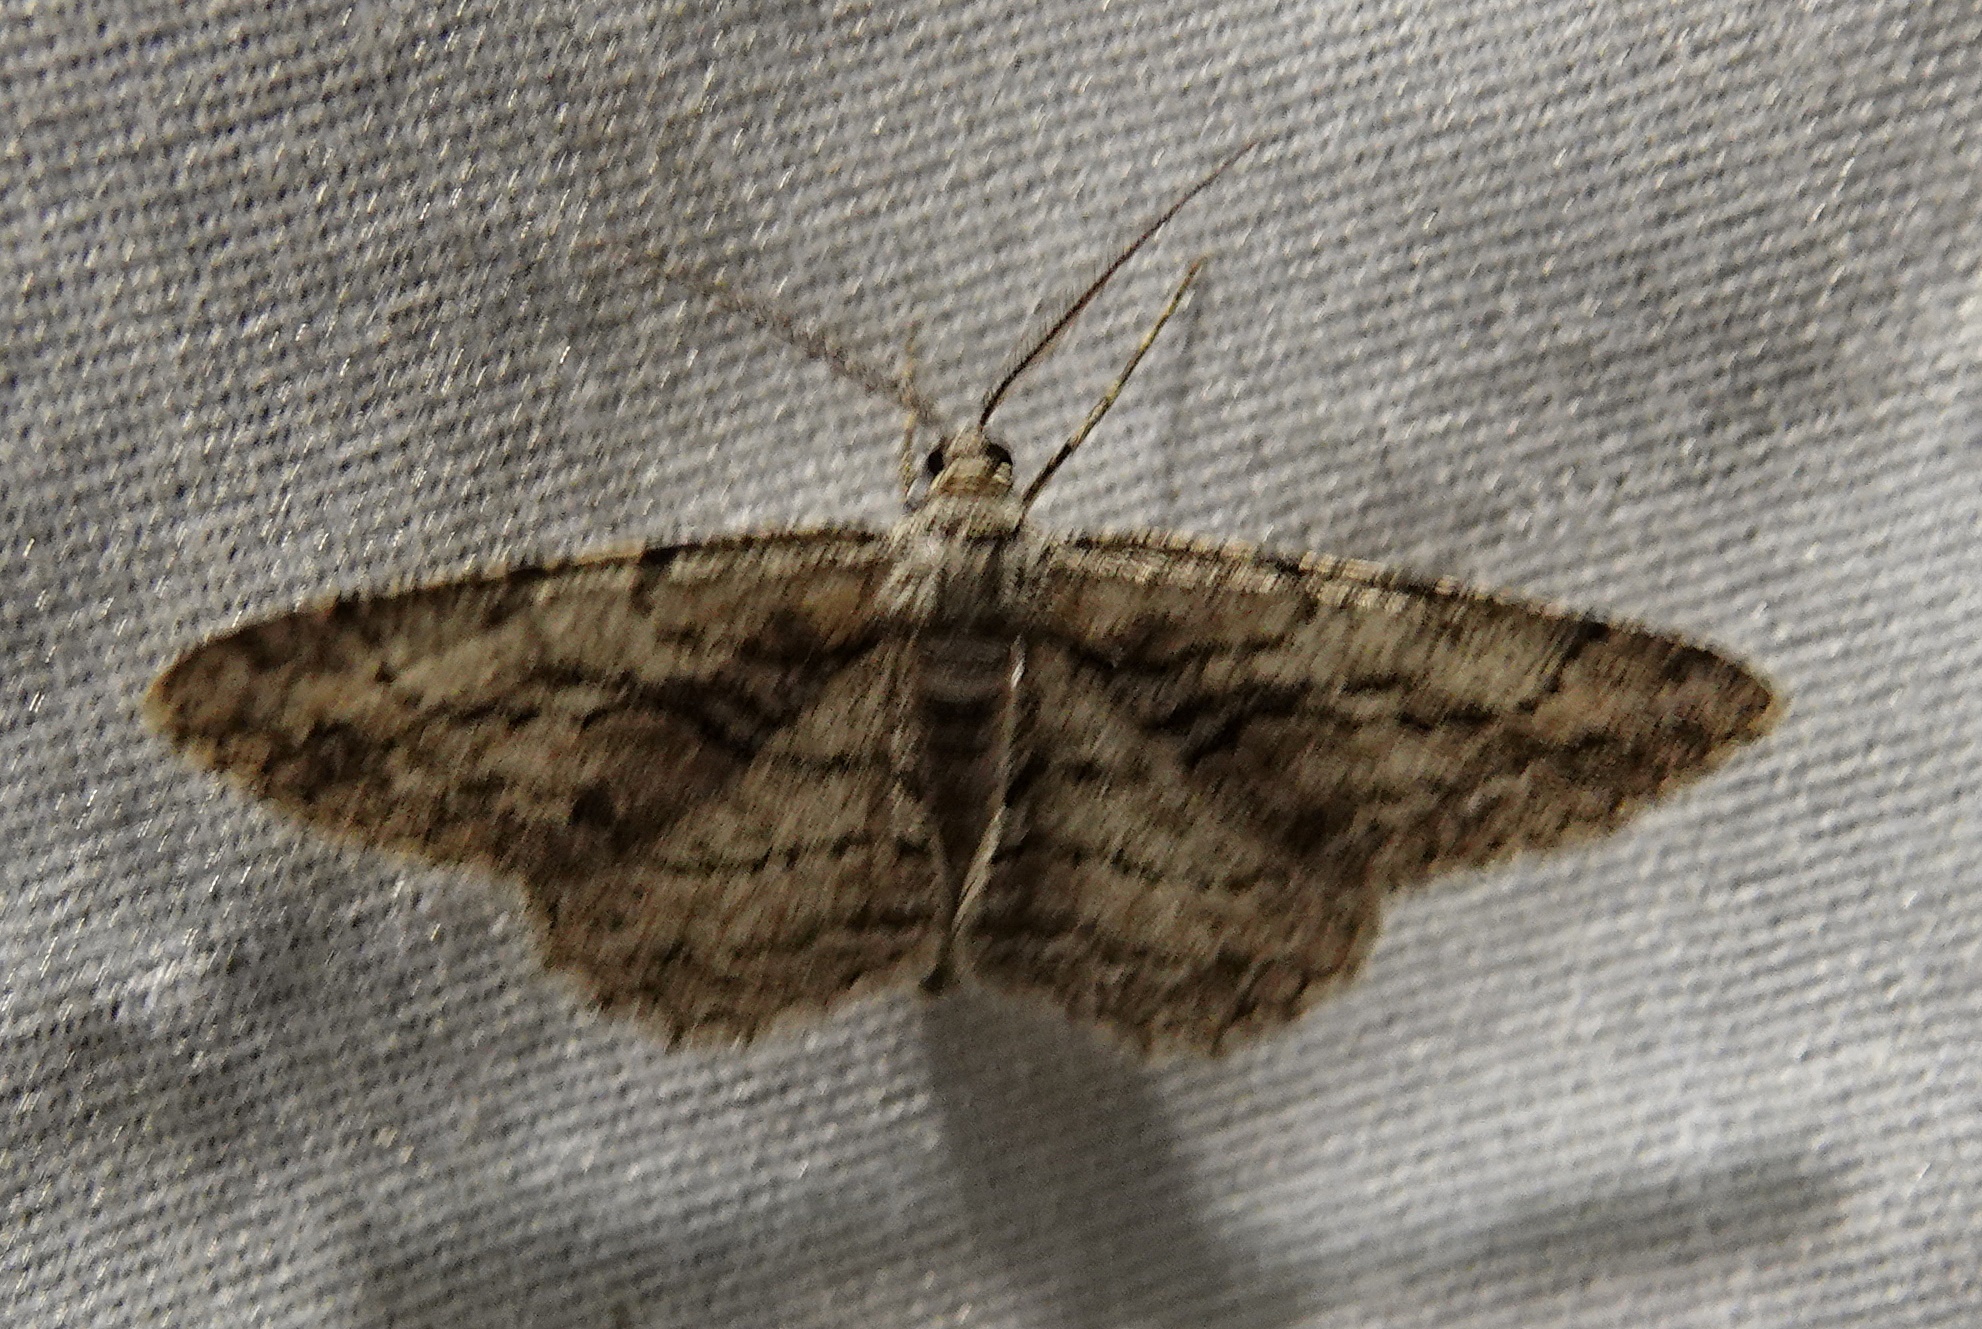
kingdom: Animalia
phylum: Arthropoda
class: Insecta
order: Lepidoptera
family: Geometridae
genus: Anavitrinella
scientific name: Anavitrinella pampinaria
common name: Common gray
